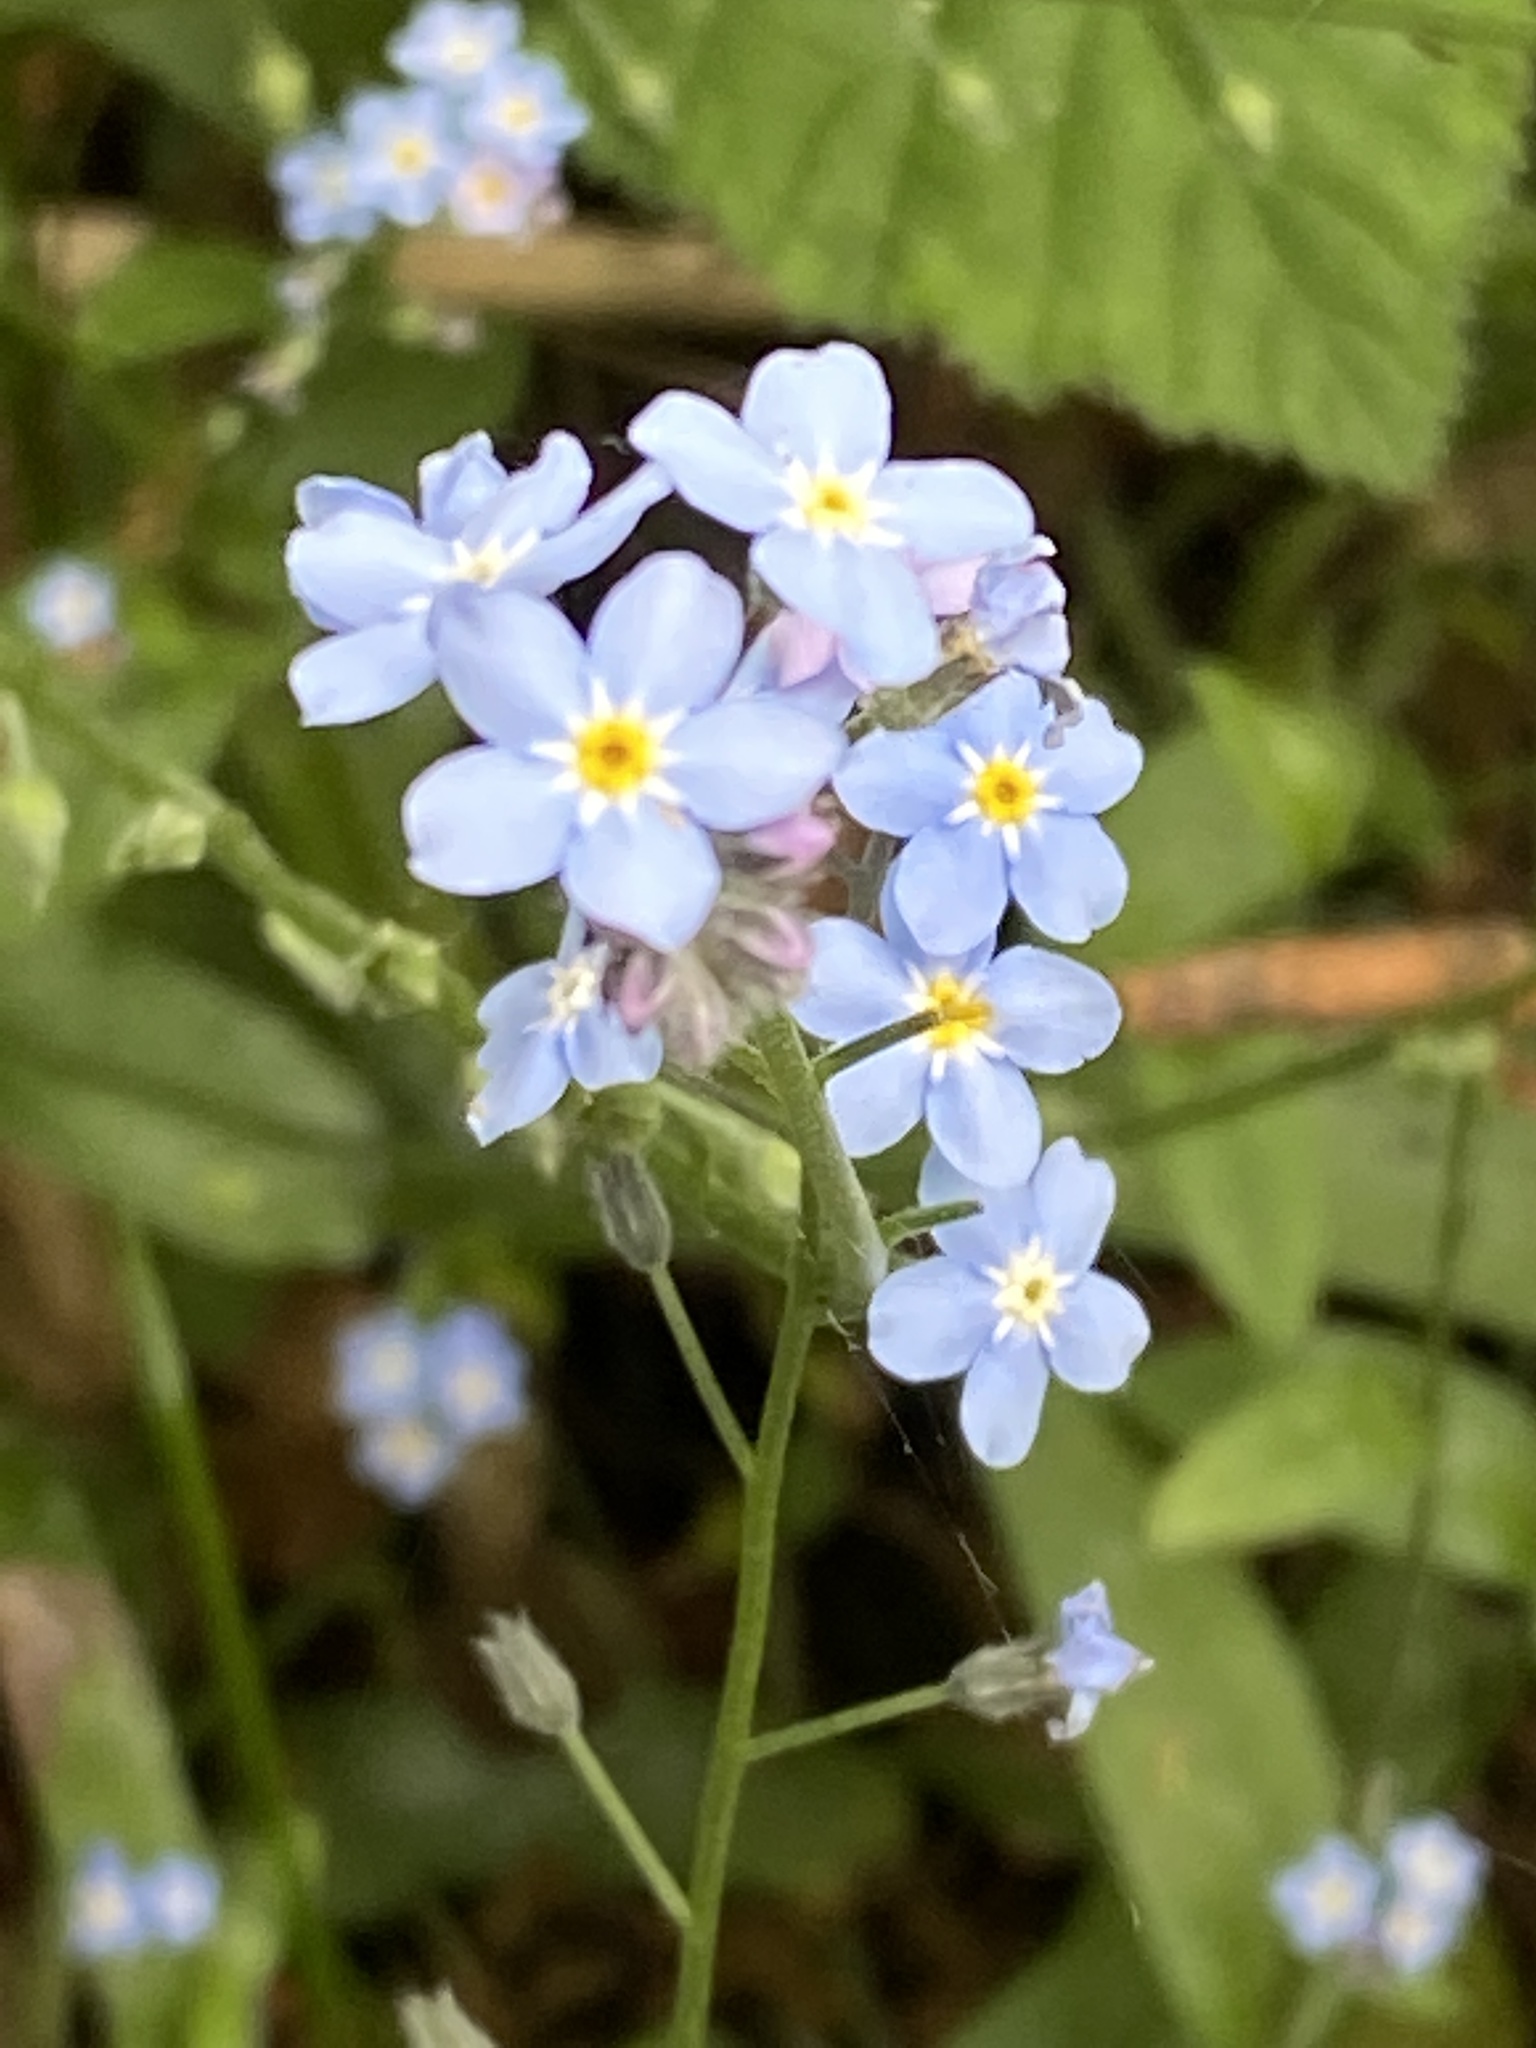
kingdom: Plantae
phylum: Tracheophyta
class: Magnoliopsida
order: Boraginales
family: Boraginaceae
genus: Myosotis
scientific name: Myosotis sylvatica
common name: Wood forget-me-not
